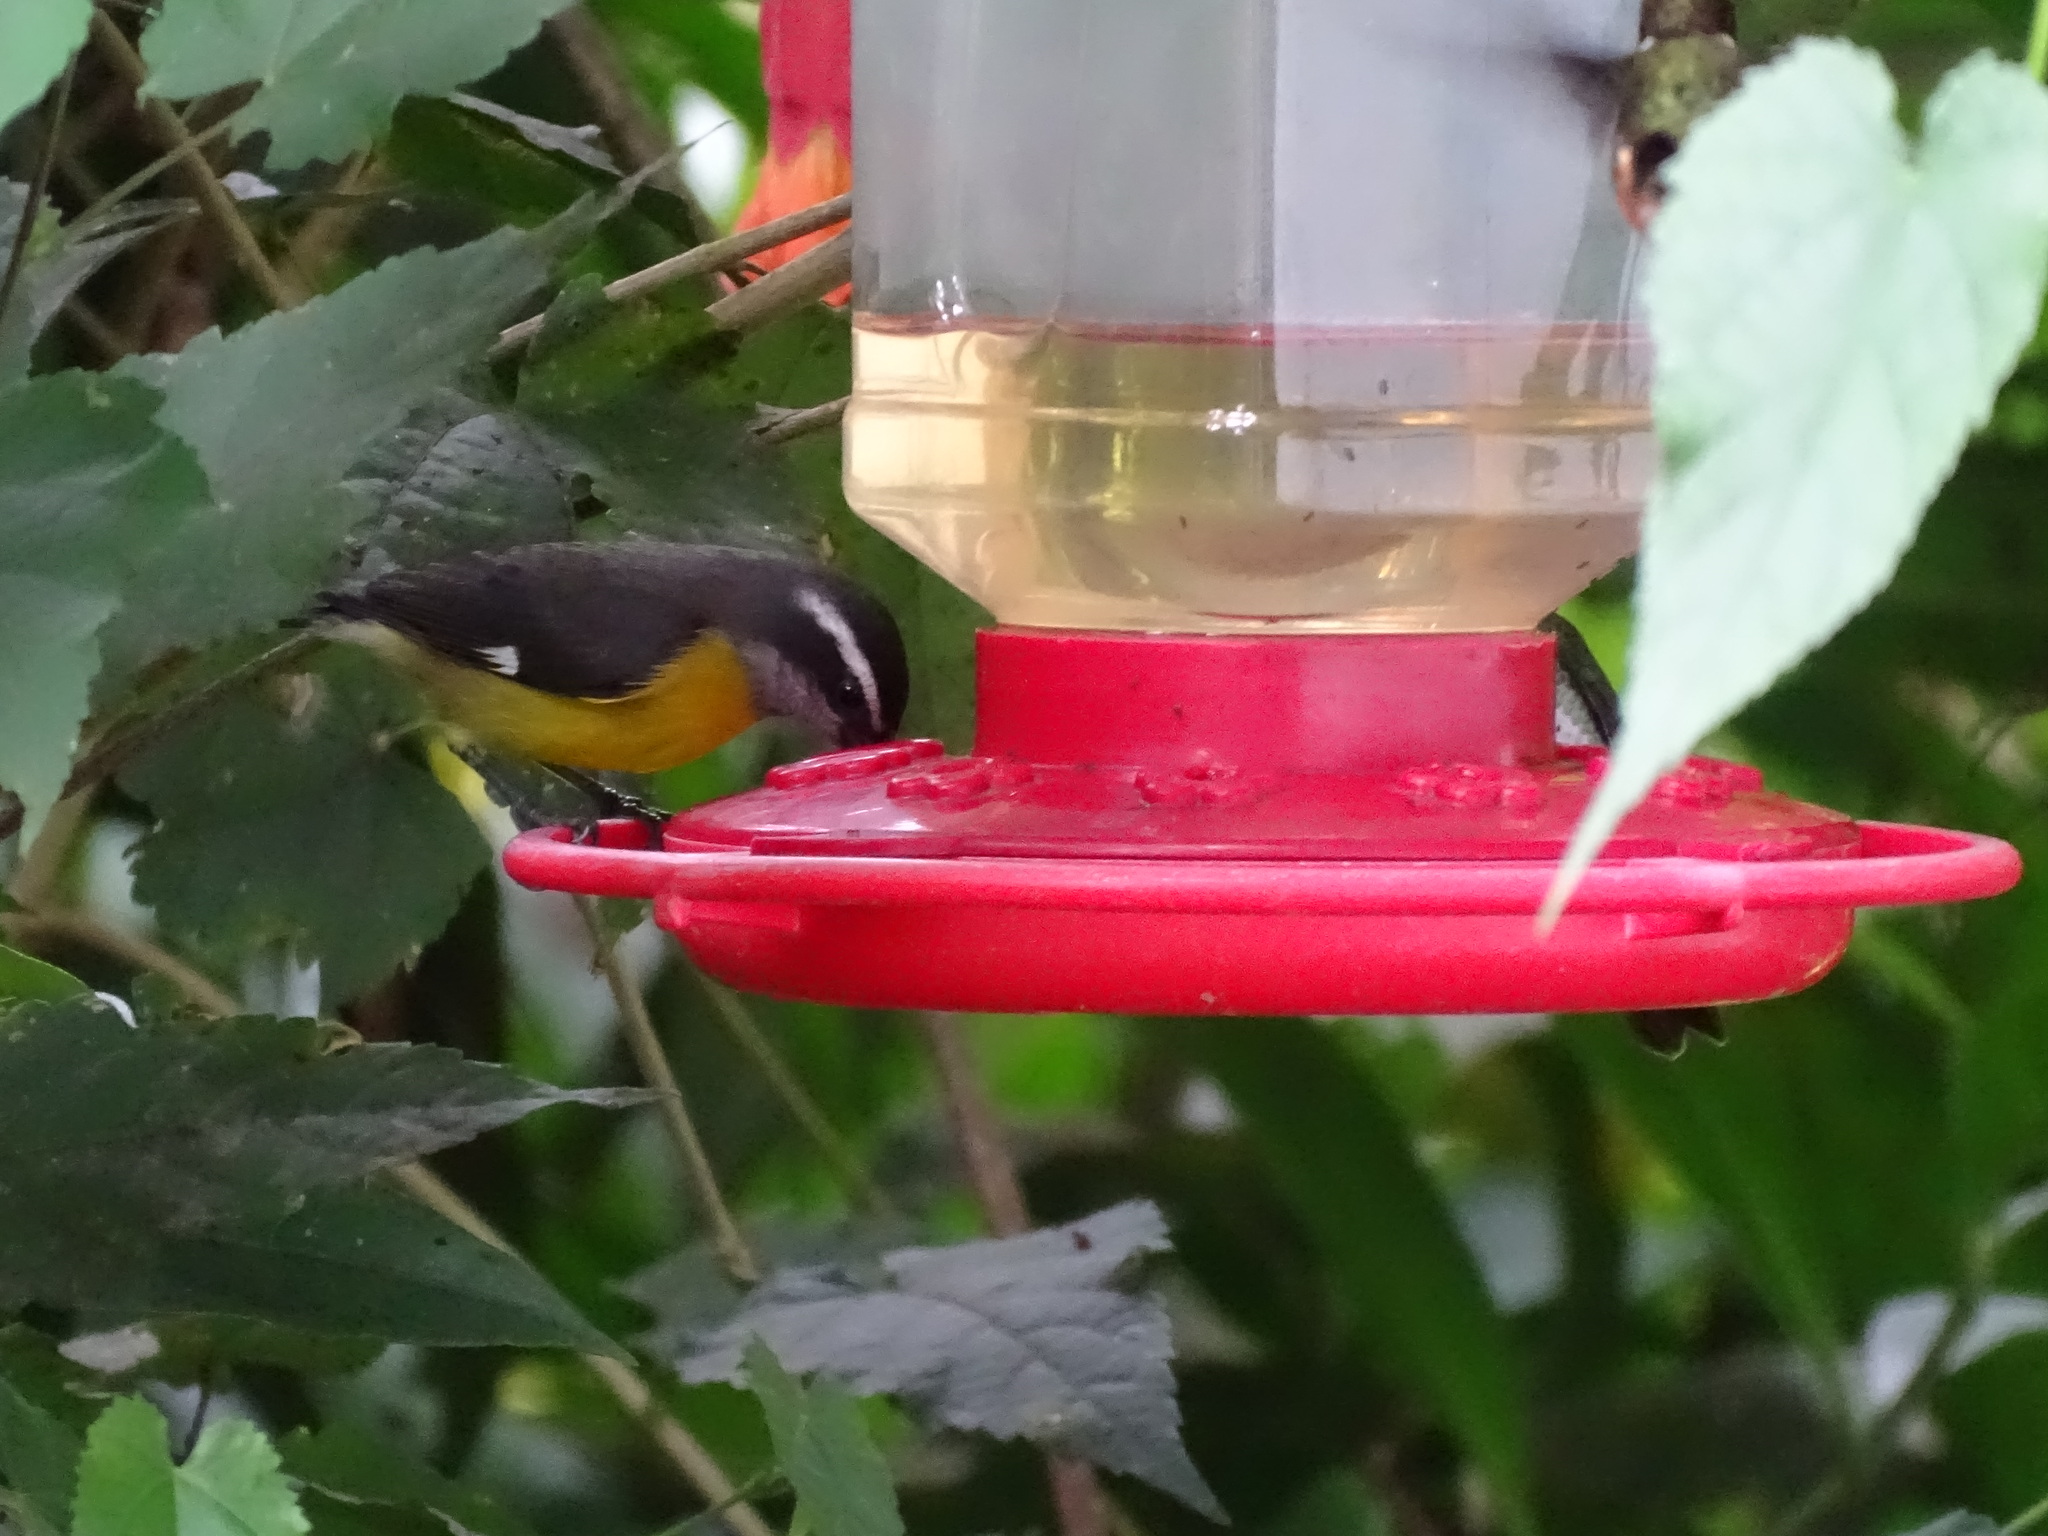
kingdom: Animalia
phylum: Chordata
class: Aves
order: Passeriformes
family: Thraupidae
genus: Coereba
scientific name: Coereba flaveola
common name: Bananaquit
